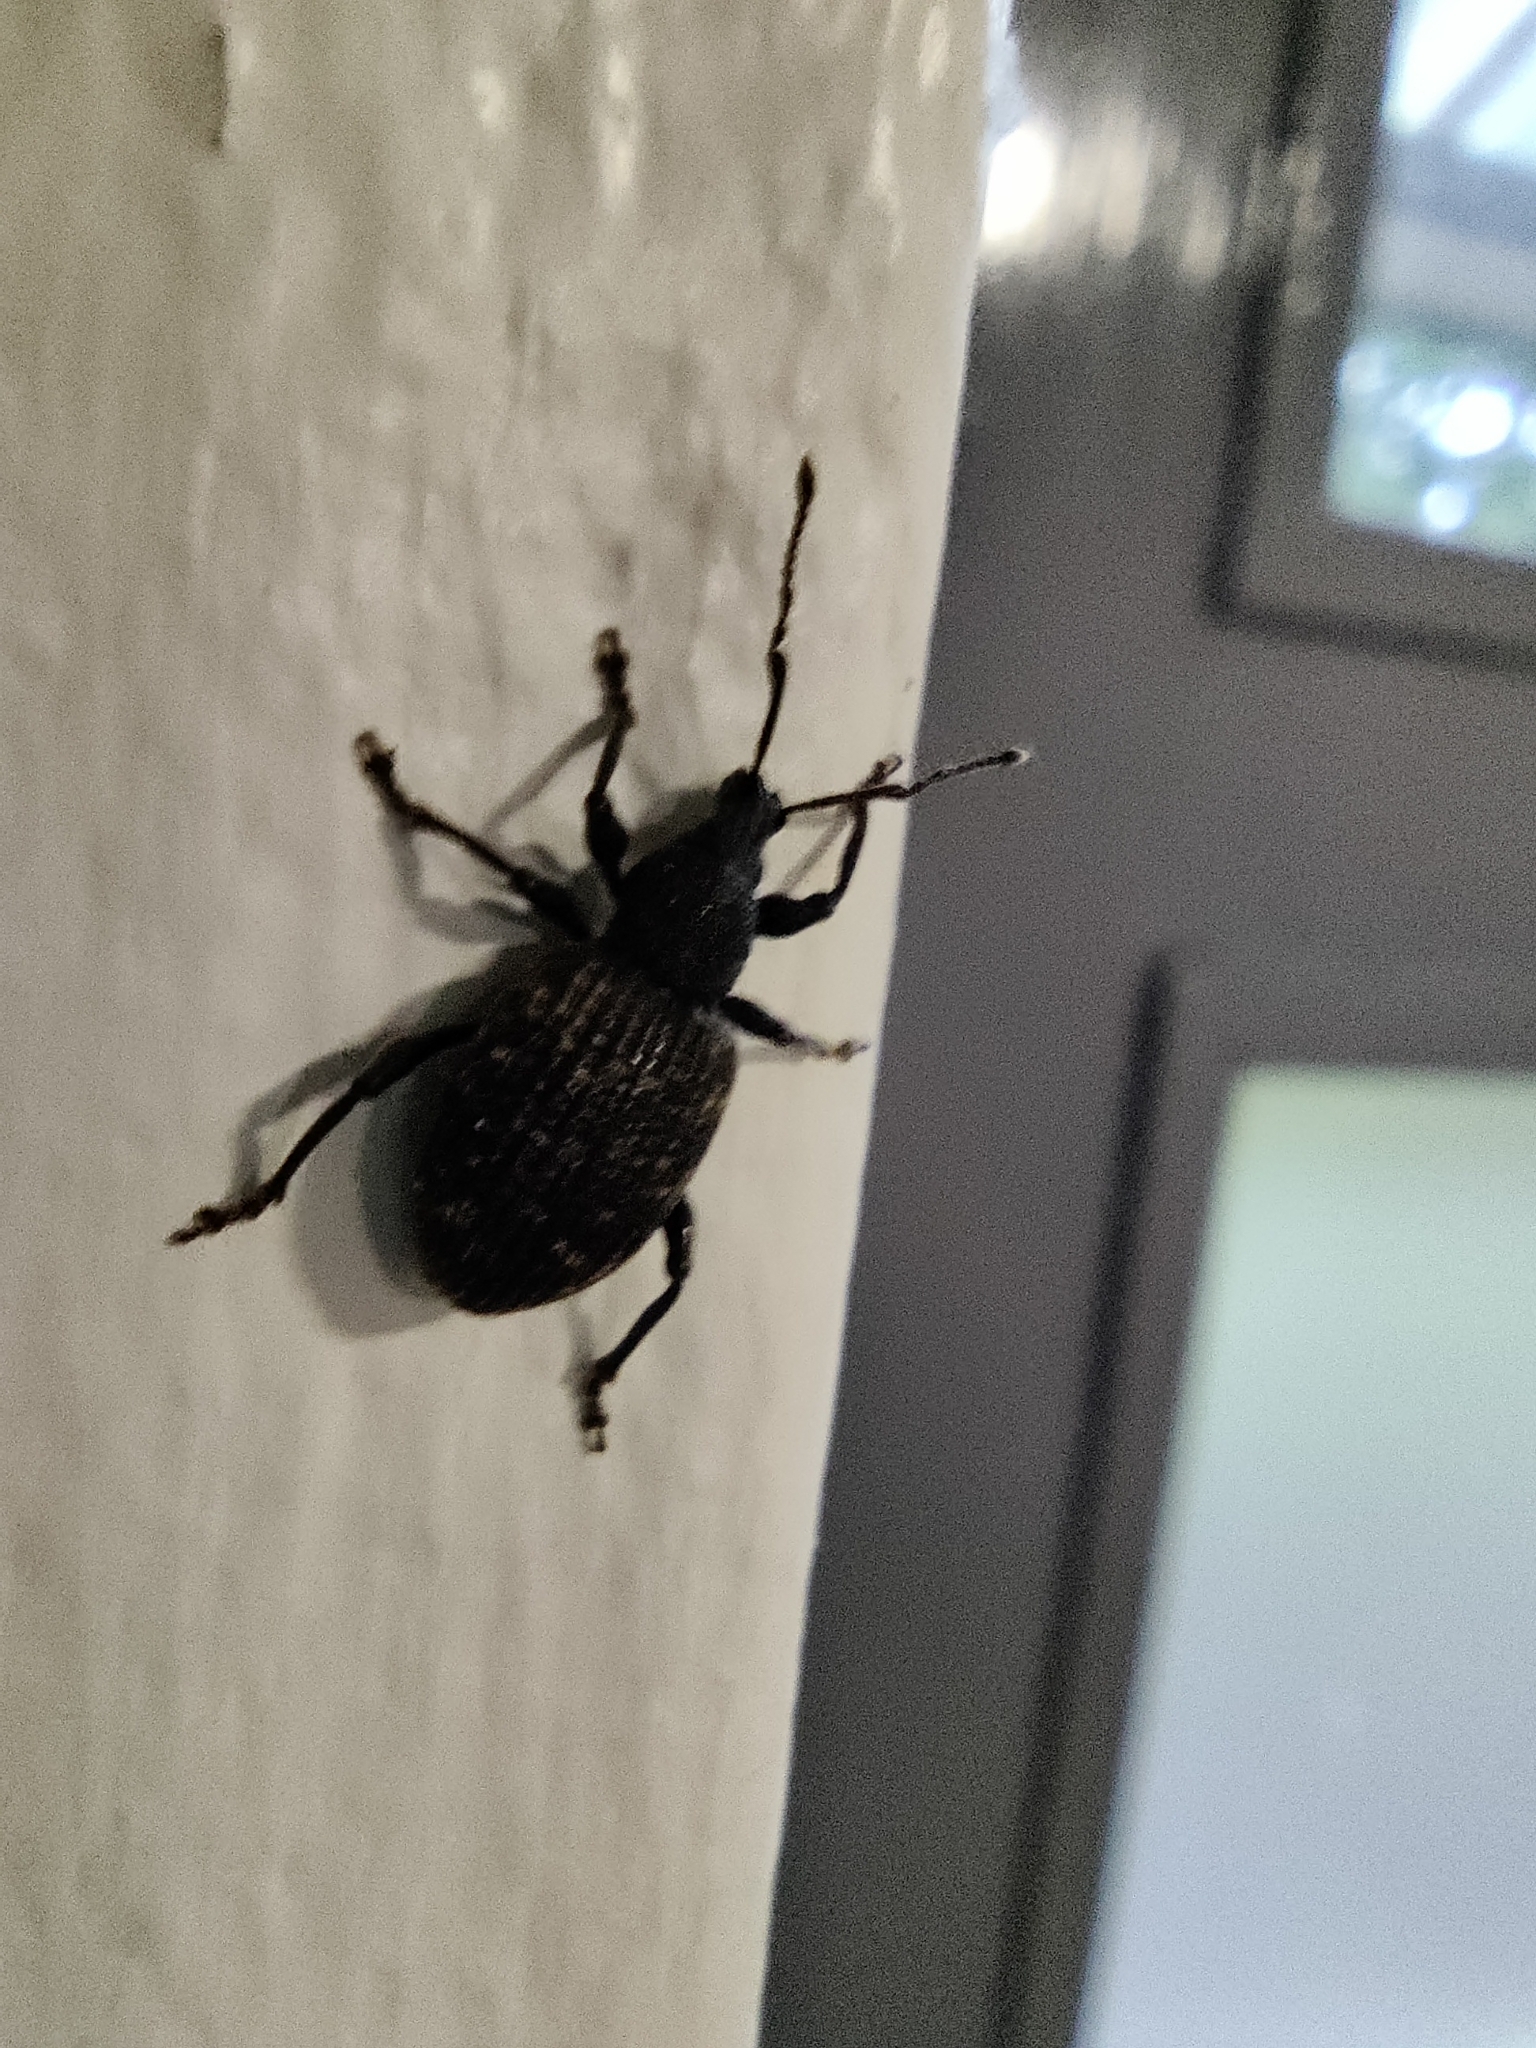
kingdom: Animalia
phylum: Arthropoda
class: Insecta
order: Coleoptera
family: Curculionidae
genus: Otiorhynchus
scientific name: Otiorhynchus sulcatus
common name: Black vine weevil
